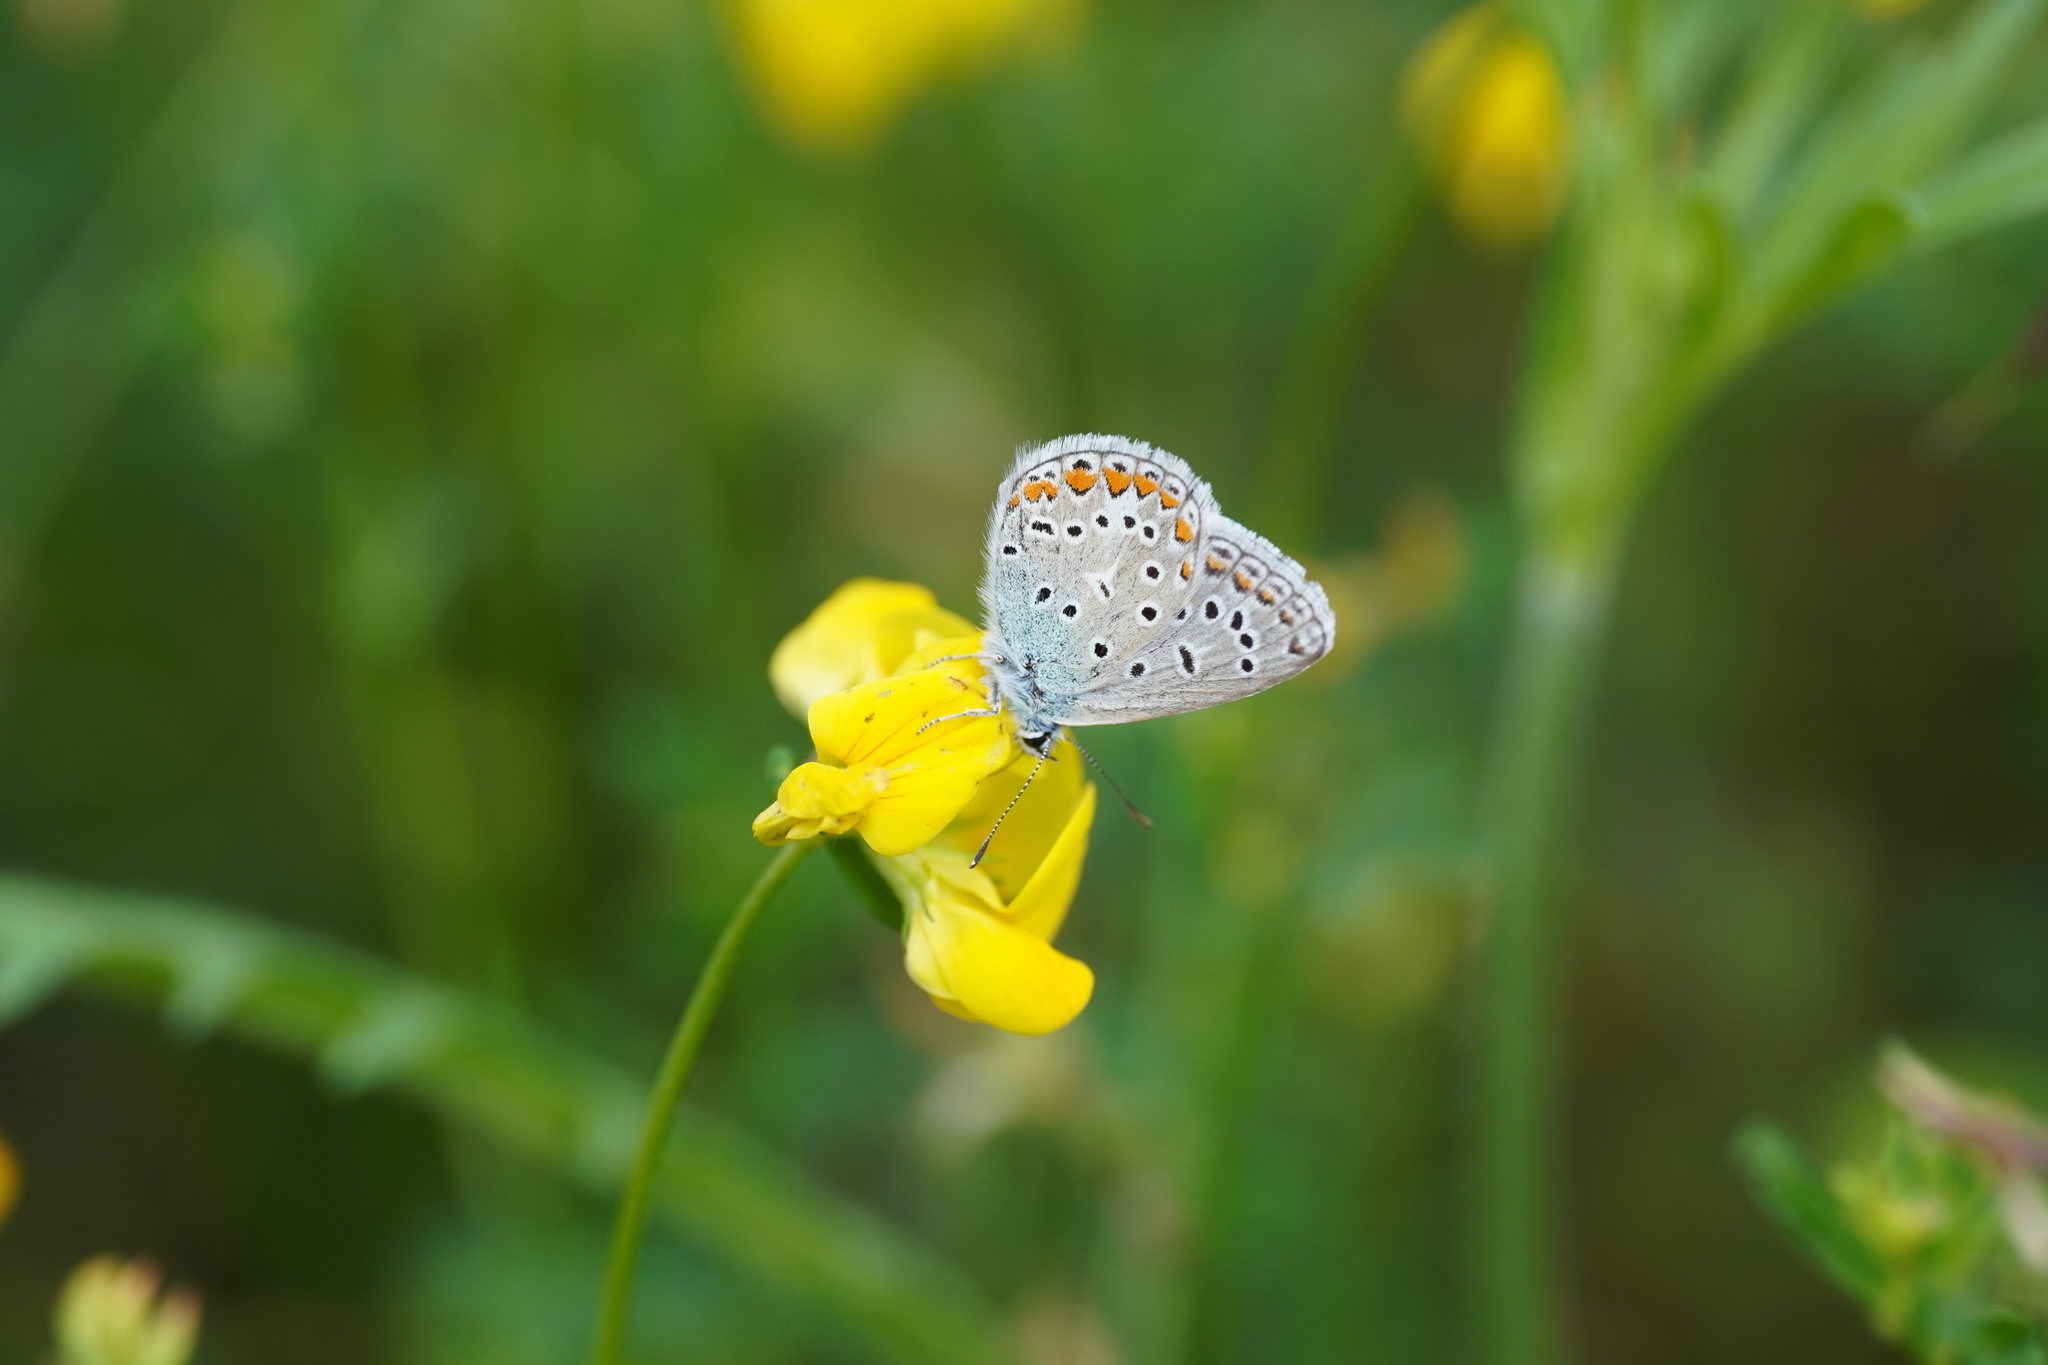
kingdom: Animalia
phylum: Arthropoda
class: Insecta
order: Lepidoptera
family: Lycaenidae
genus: Polyommatus
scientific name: Polyommatus icarus
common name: Common blue
